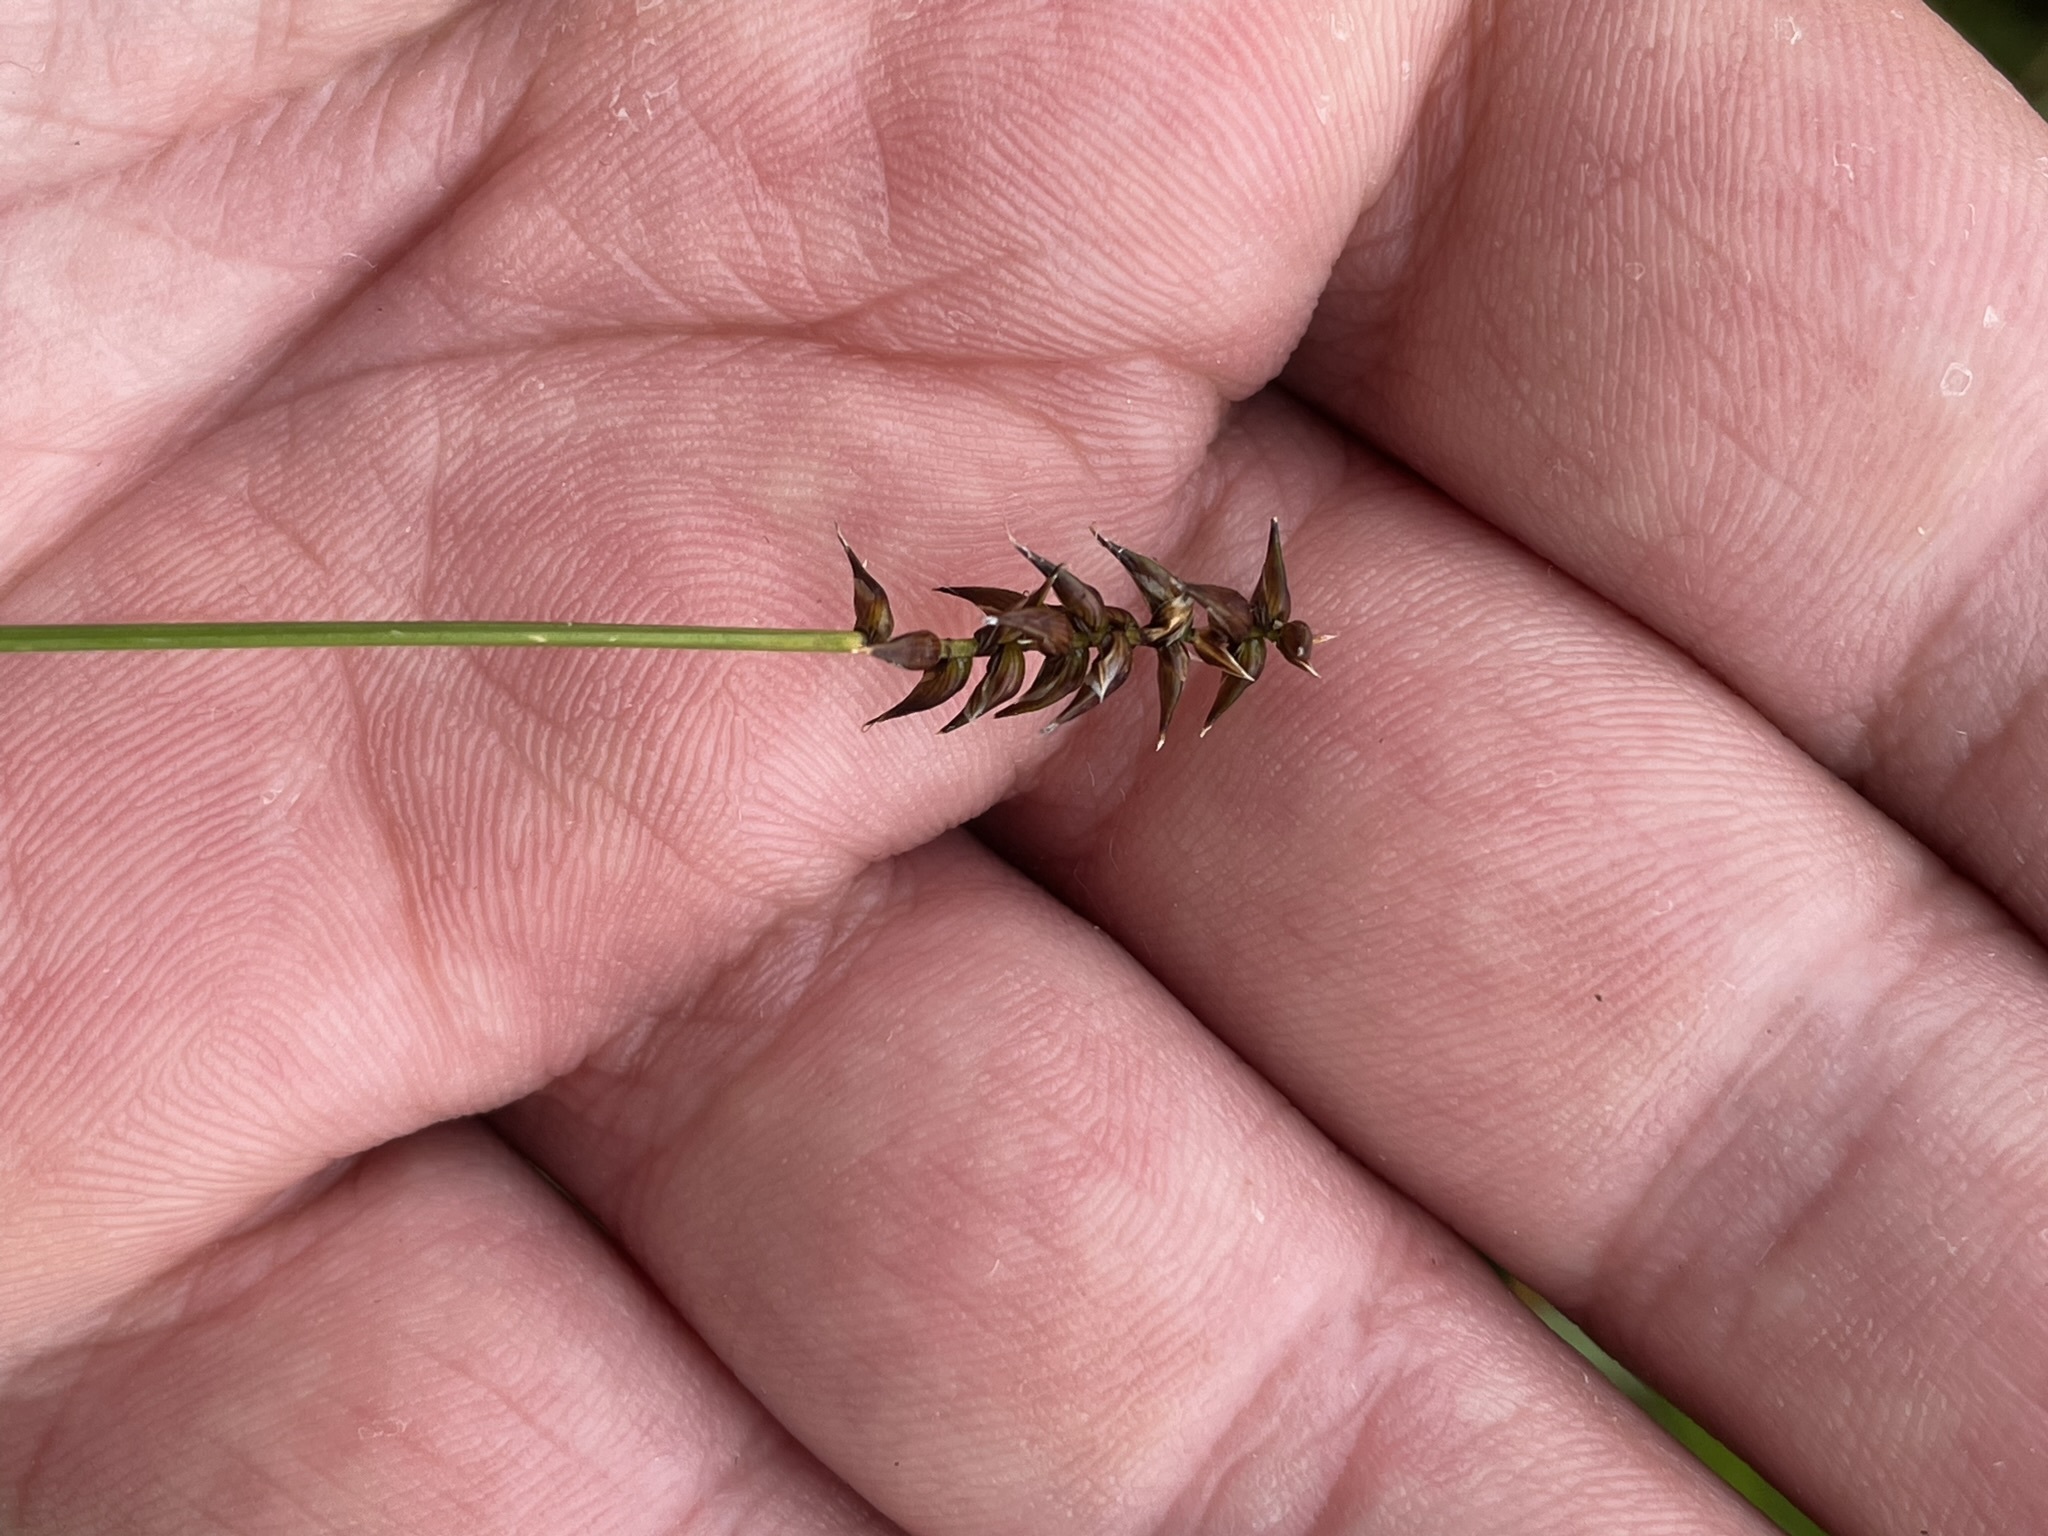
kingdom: Plantae
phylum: Tracheophyta
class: Liliopsida
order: Poales
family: Cyperaceae
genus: Carex
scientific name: Carex davalliana
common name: Davall's sedge
